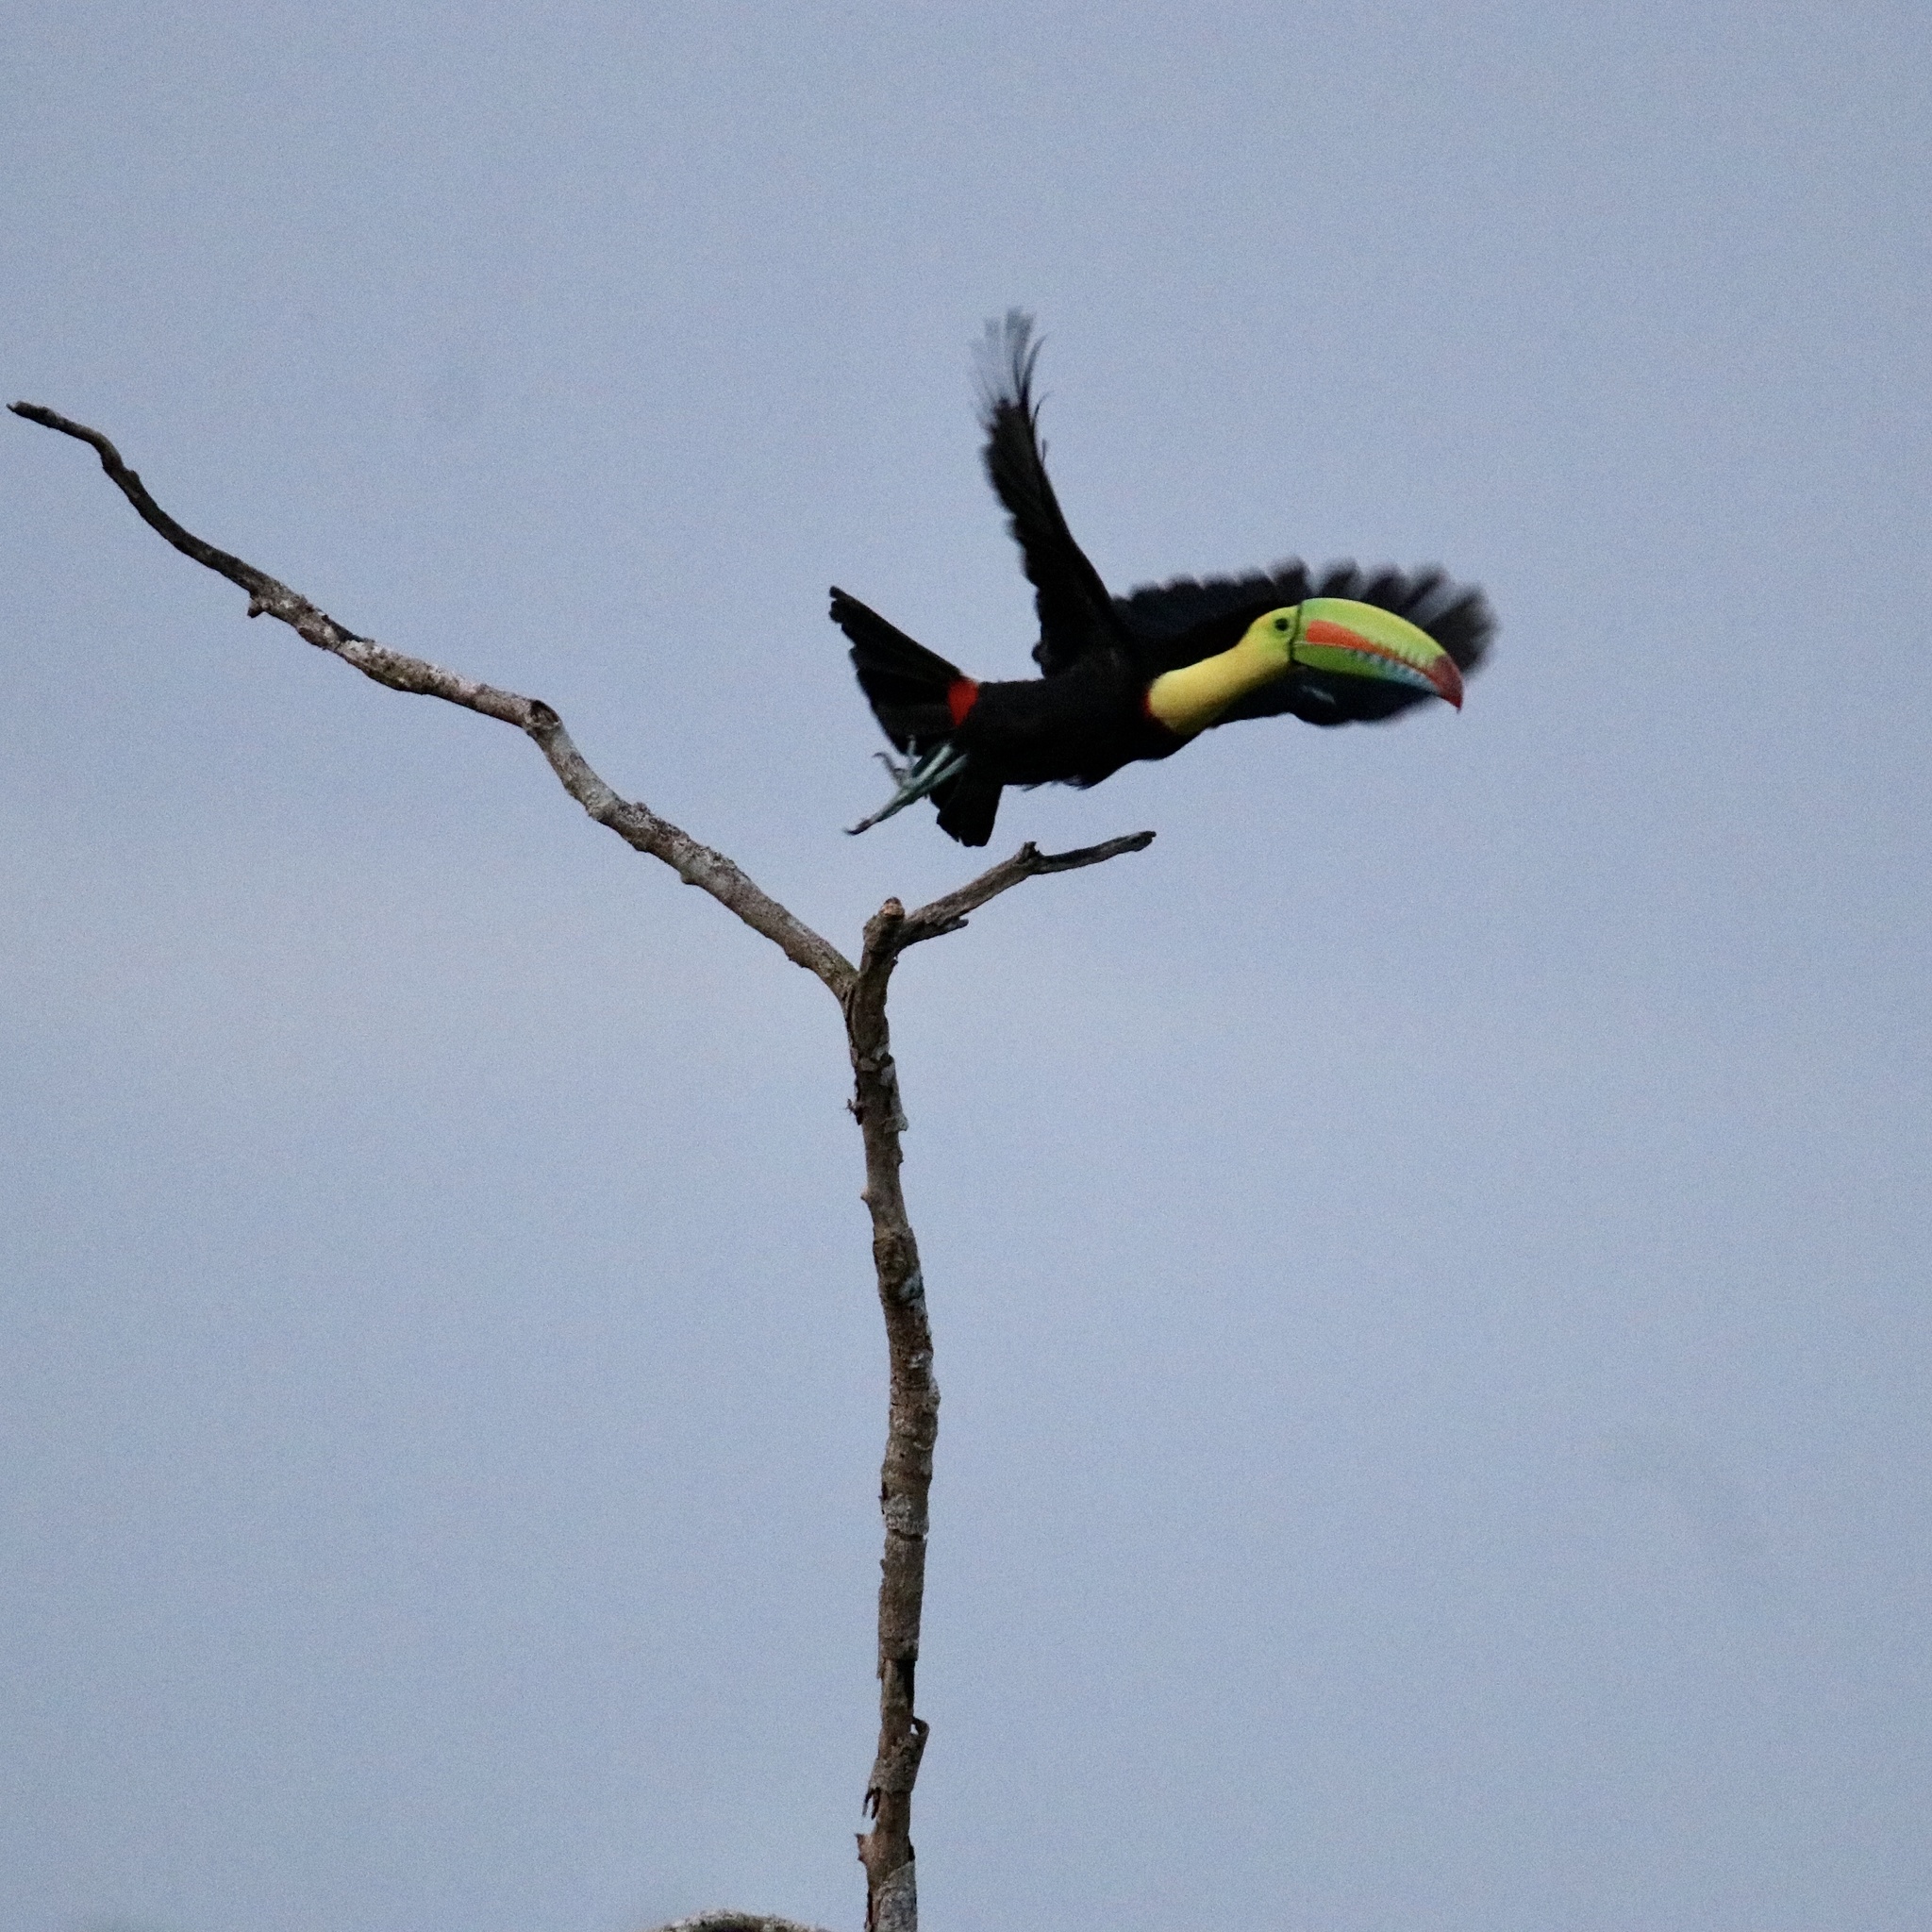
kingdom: Animalia
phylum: Chordata
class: Aves
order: Piciformes
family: Ramphastidae
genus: Ramphastos
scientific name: Ramphastos sulfuratus
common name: Keel-billed toucan
